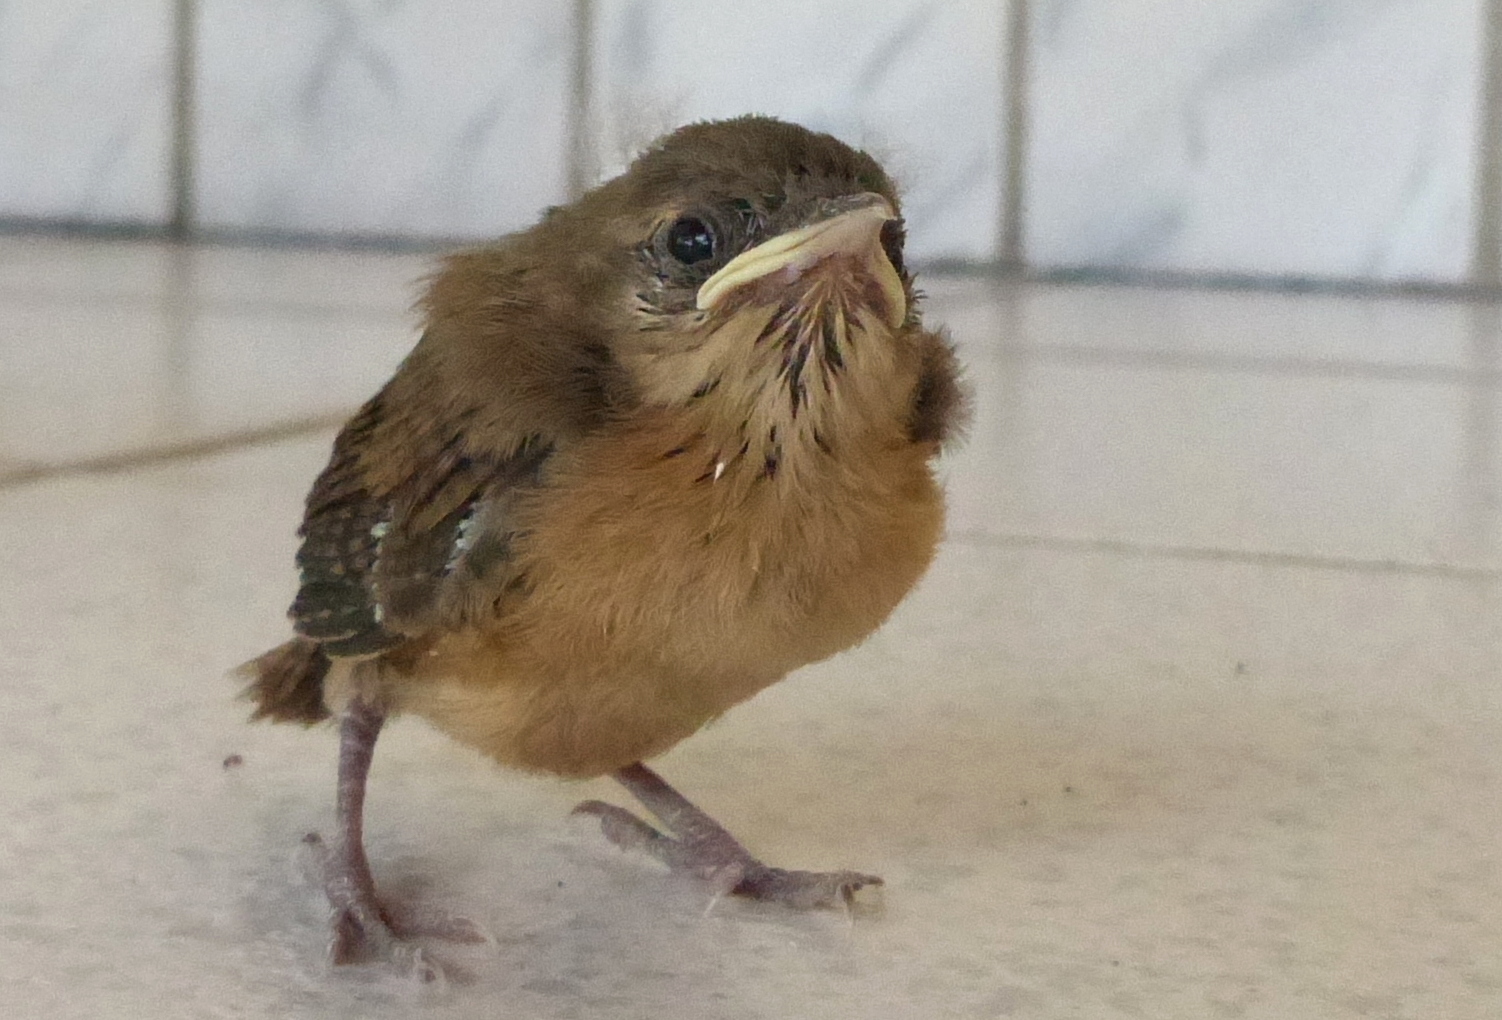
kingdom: Animalia
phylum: Chordata
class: Aves
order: Passeriformes
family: Troglodytidae
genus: Troglodytes
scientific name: Troglodytes aedon
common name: House wren
